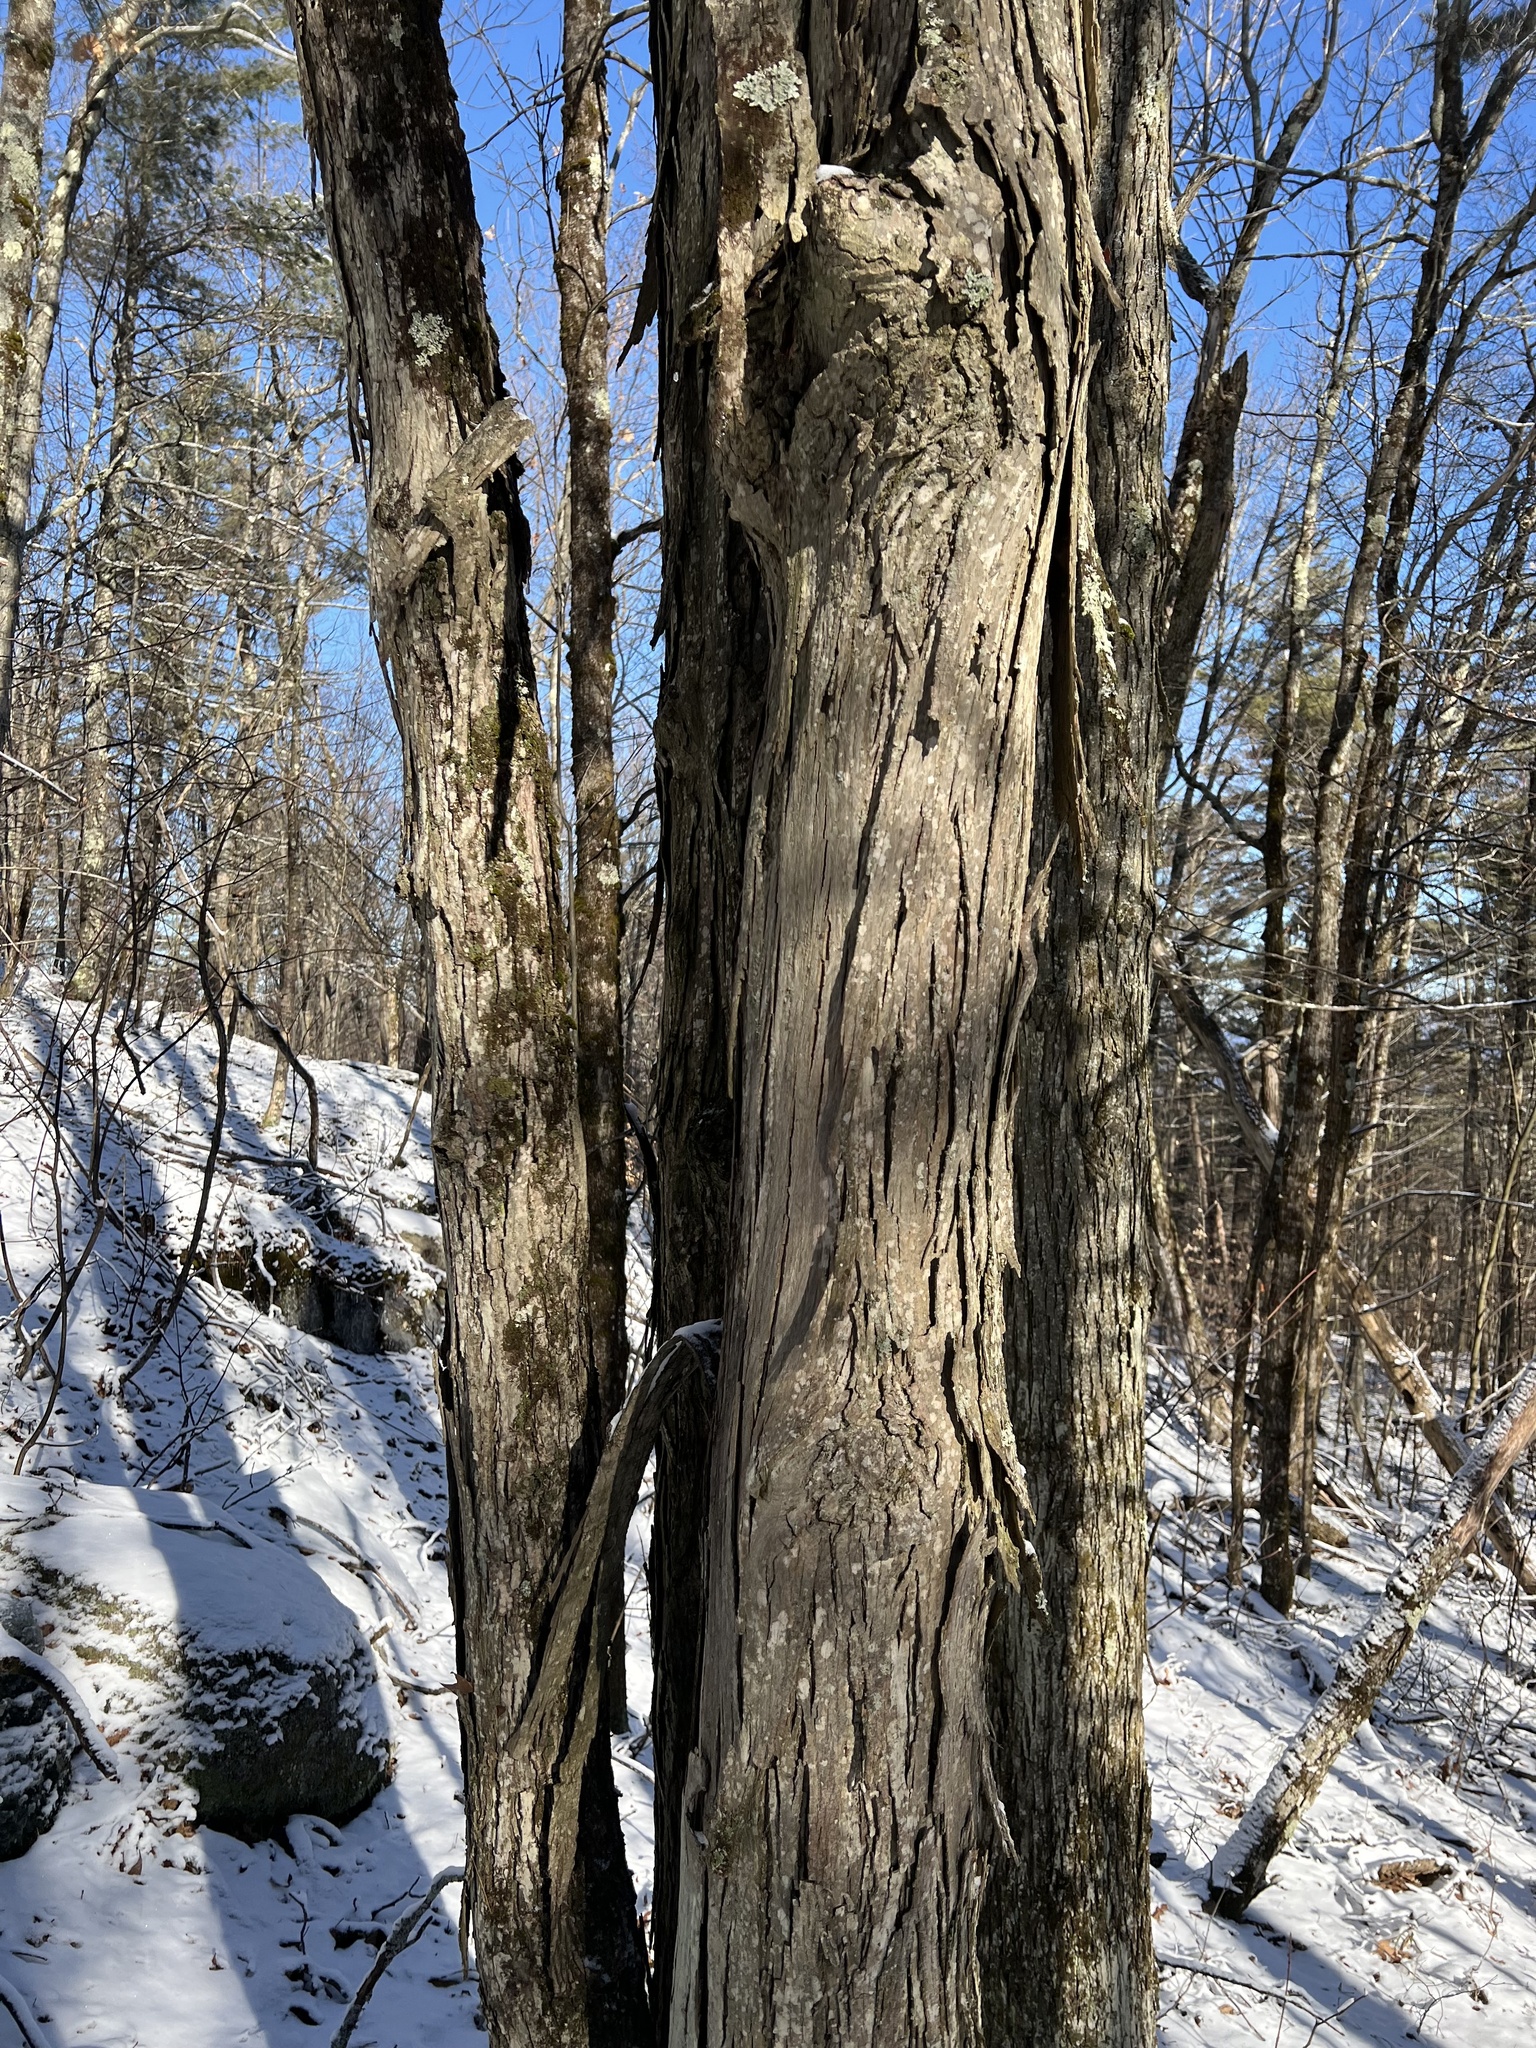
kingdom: Plantae
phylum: Tracheophyta
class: Magnoliopsida
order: Fagales
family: Juglandaceae
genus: Carya
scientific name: Carya ovata
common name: Shagbark hickory
